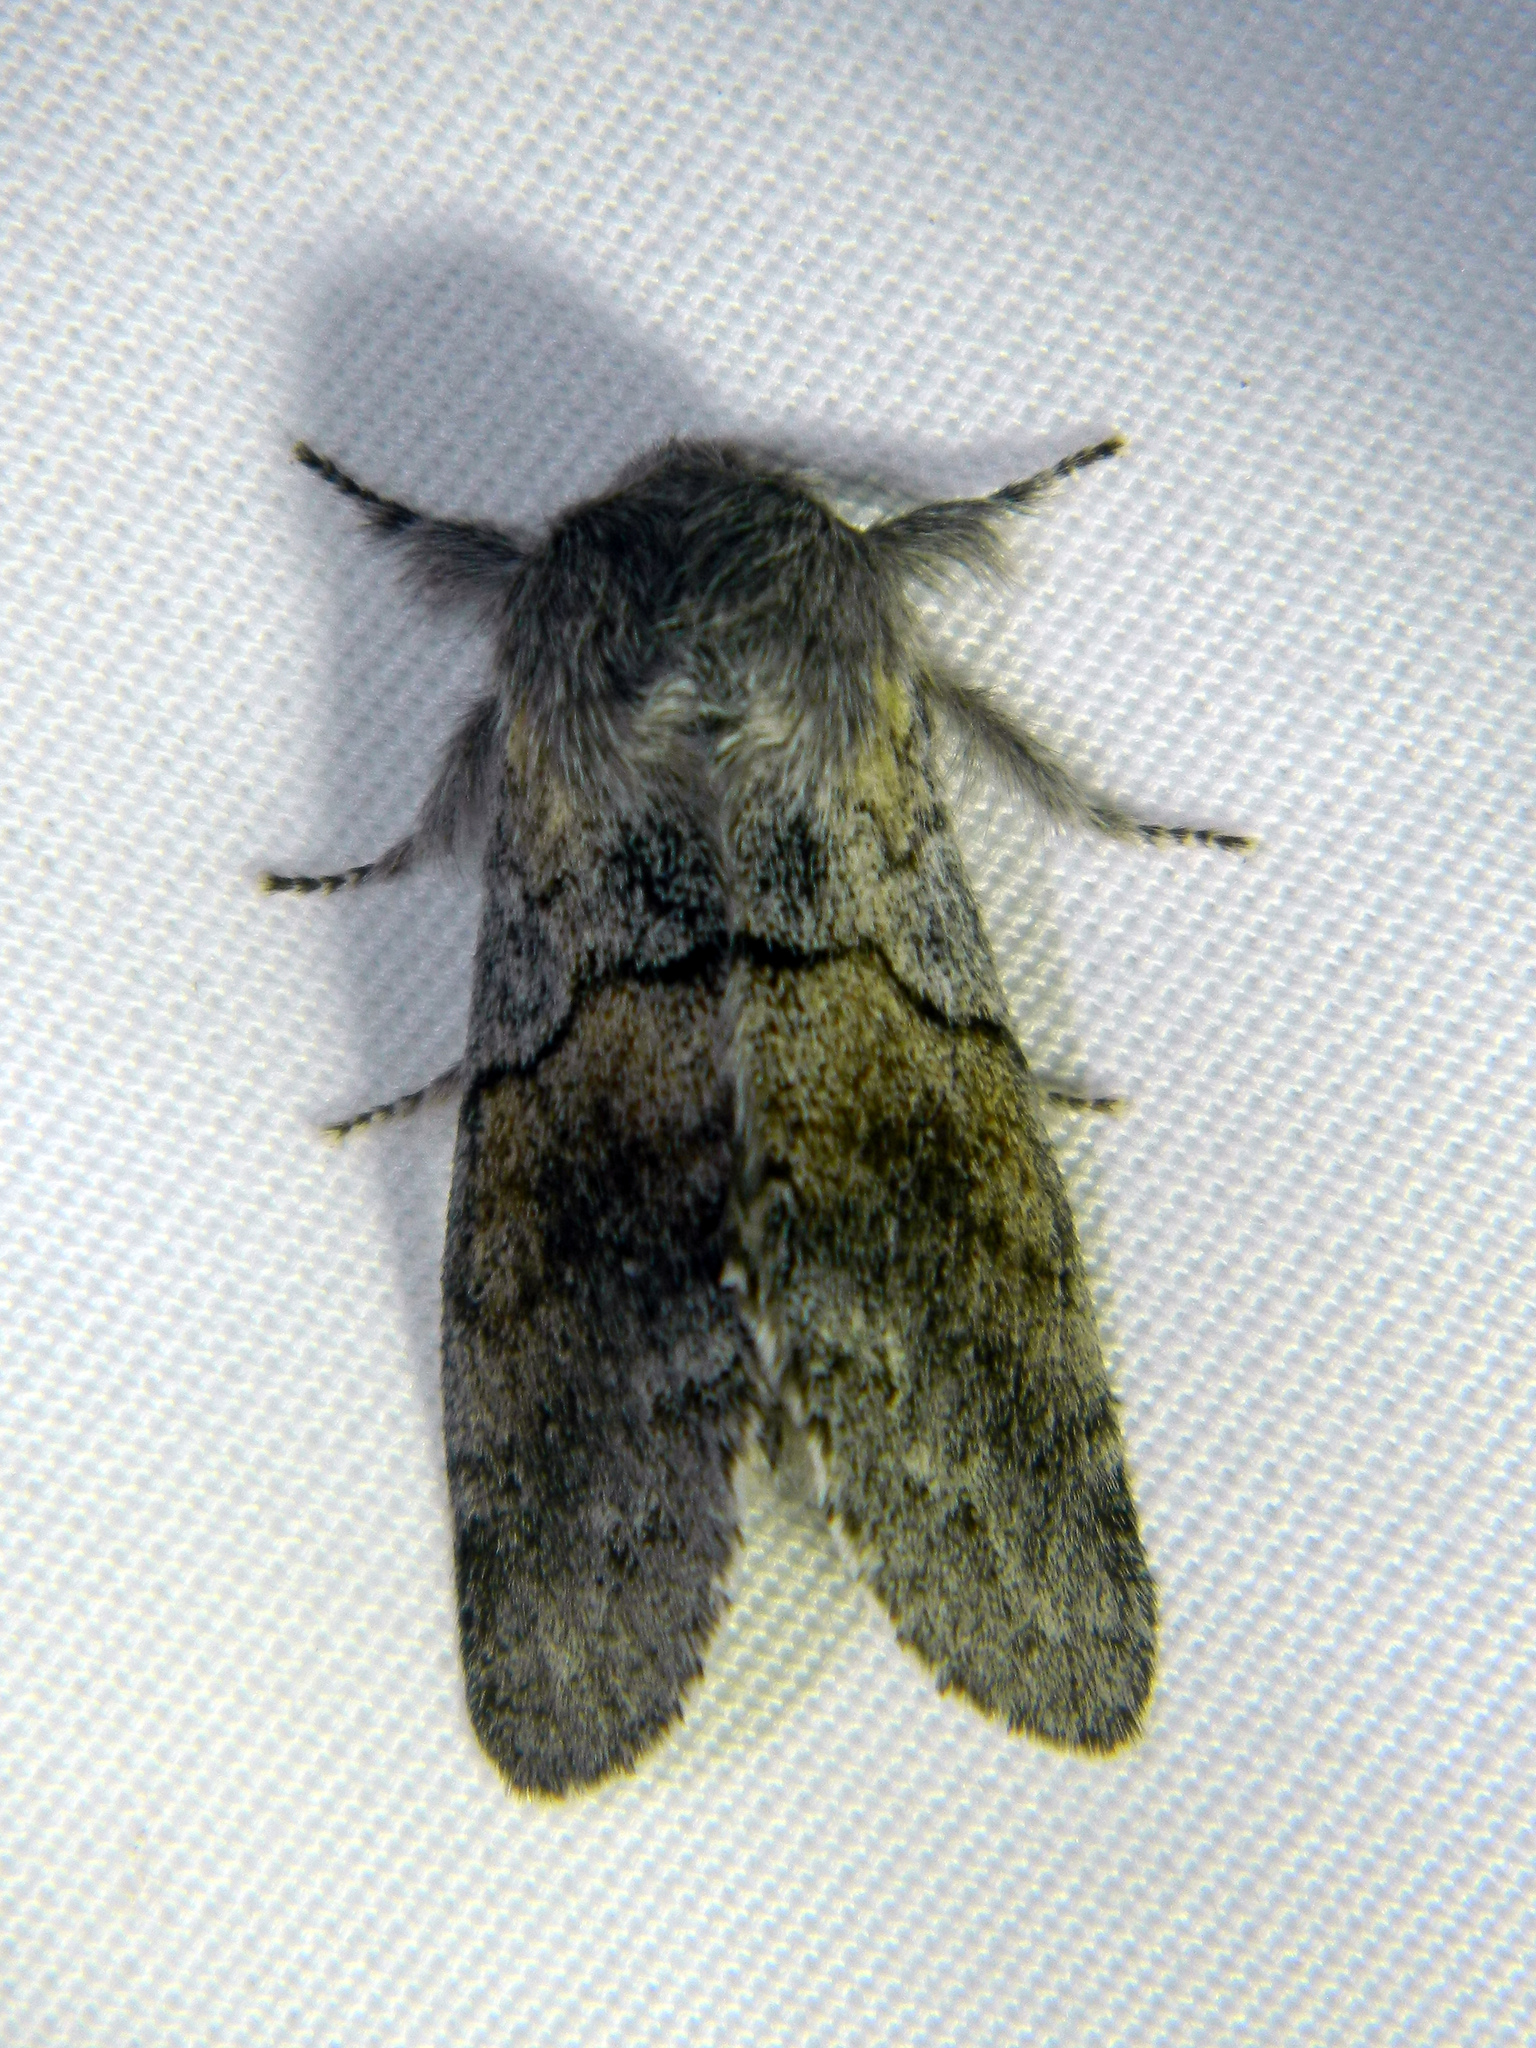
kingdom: Animalia
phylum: Arthropoda
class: Insecta
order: Lepidoptera
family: Notodontidae
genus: Gluphisia
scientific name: Gluphisia lintneri
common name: Lintner's gluphisia moth
